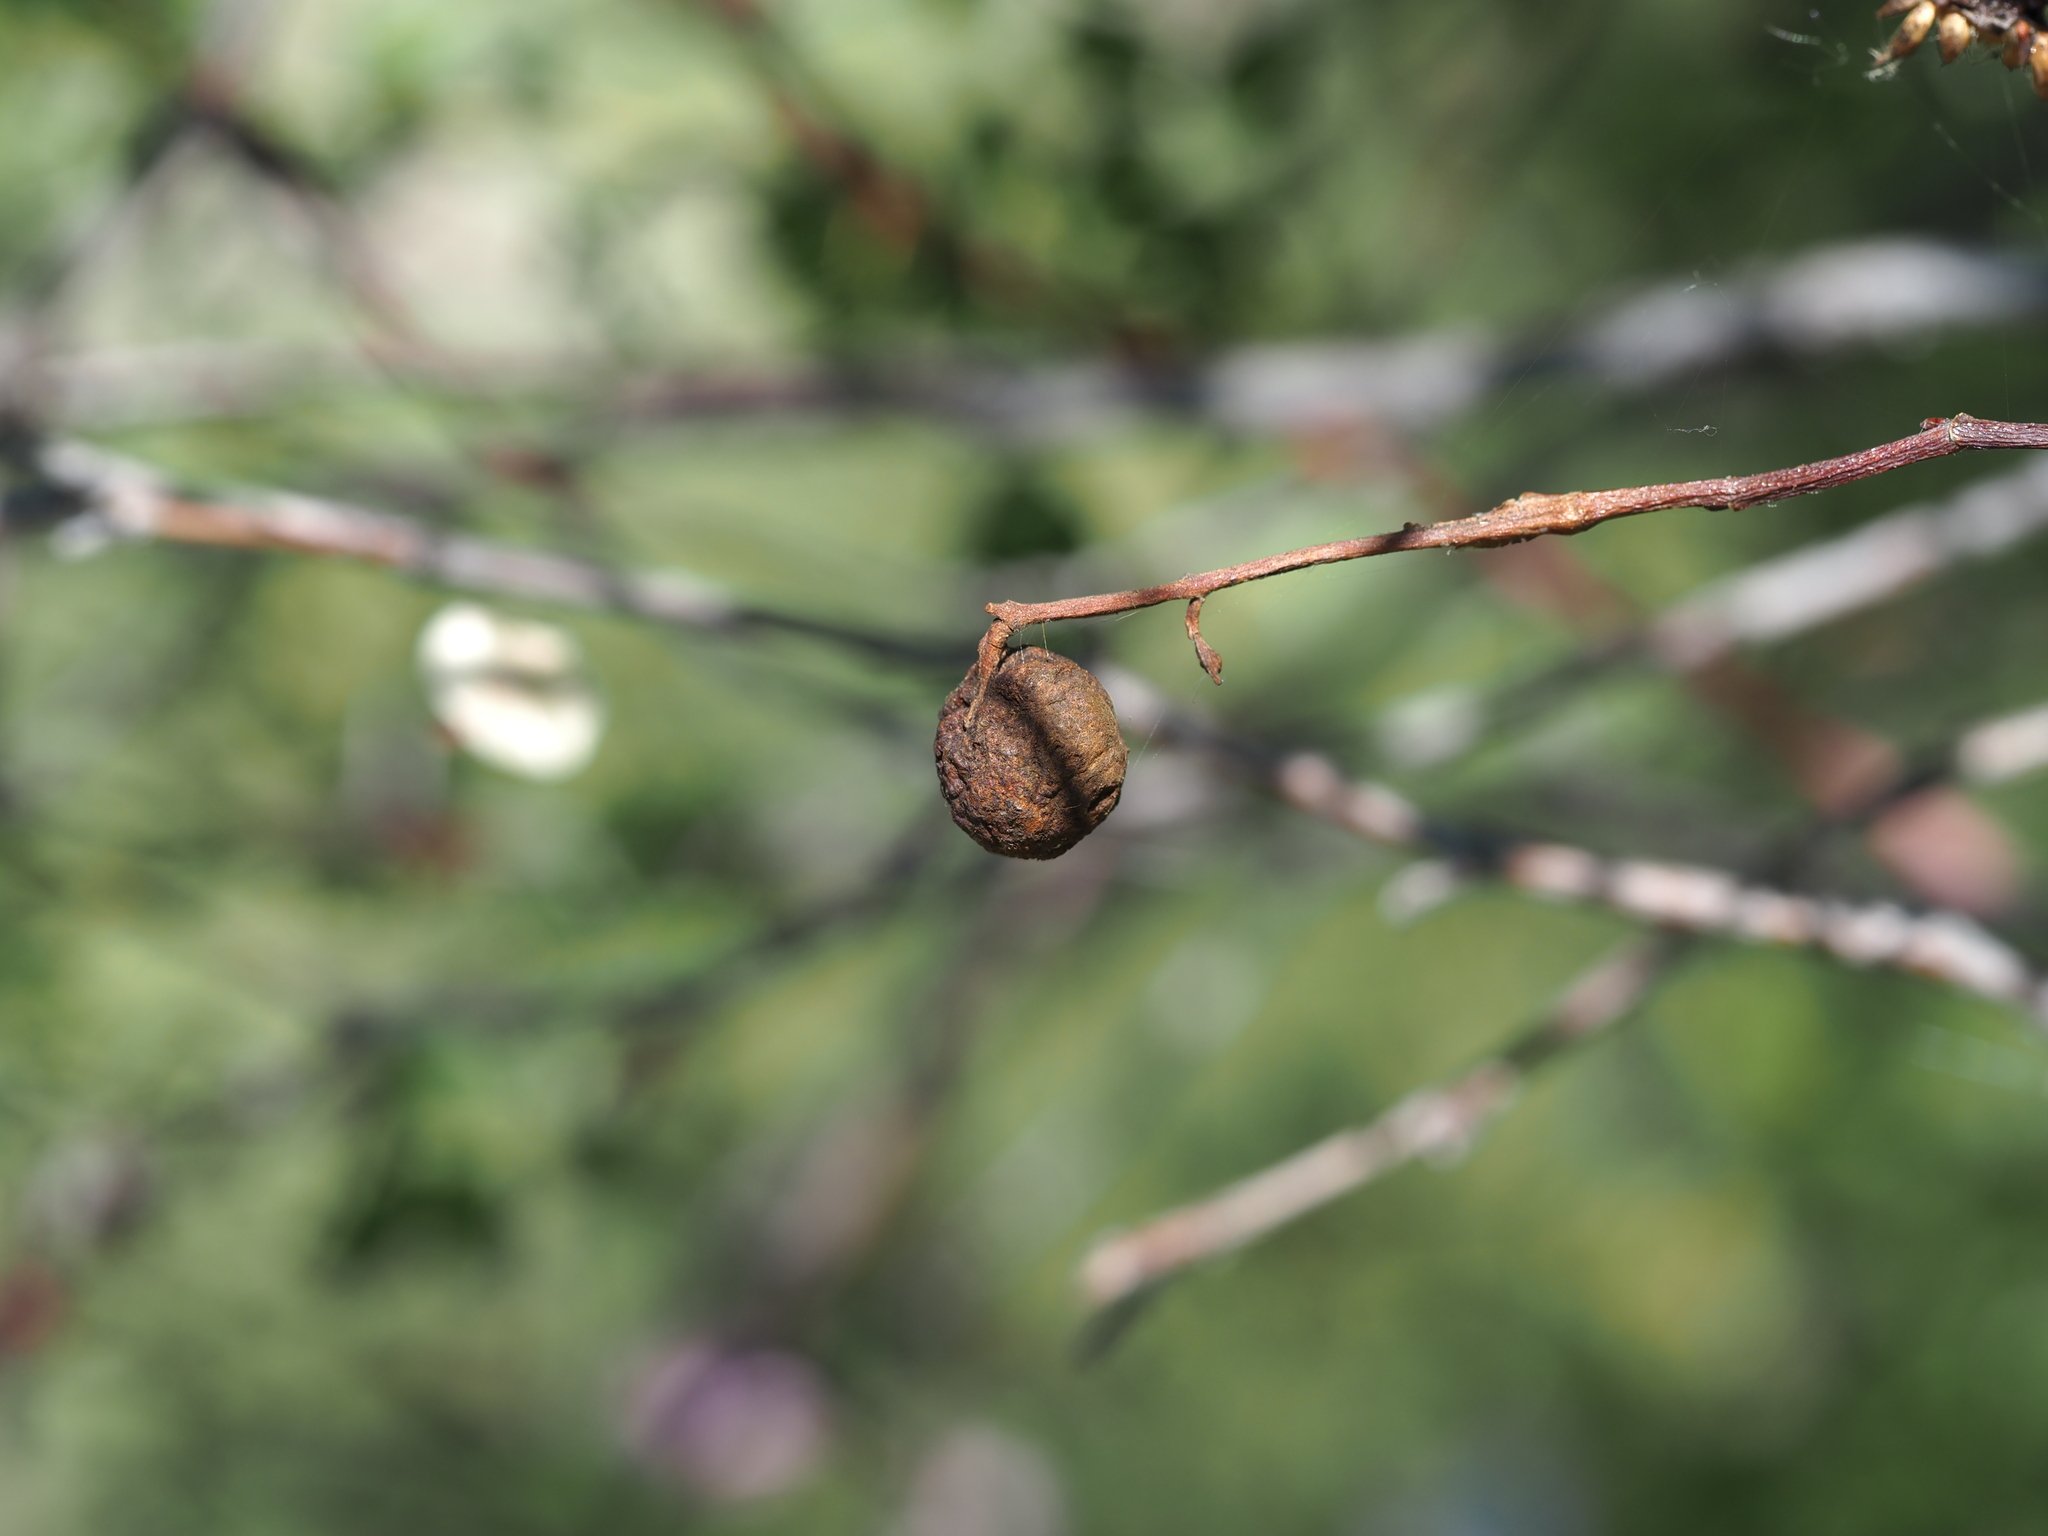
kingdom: Animalia
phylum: Arthropoda
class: Insecta
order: Hymenoptera
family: Cynipidae
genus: Diplolepis
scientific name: Diplolepis variabilis
